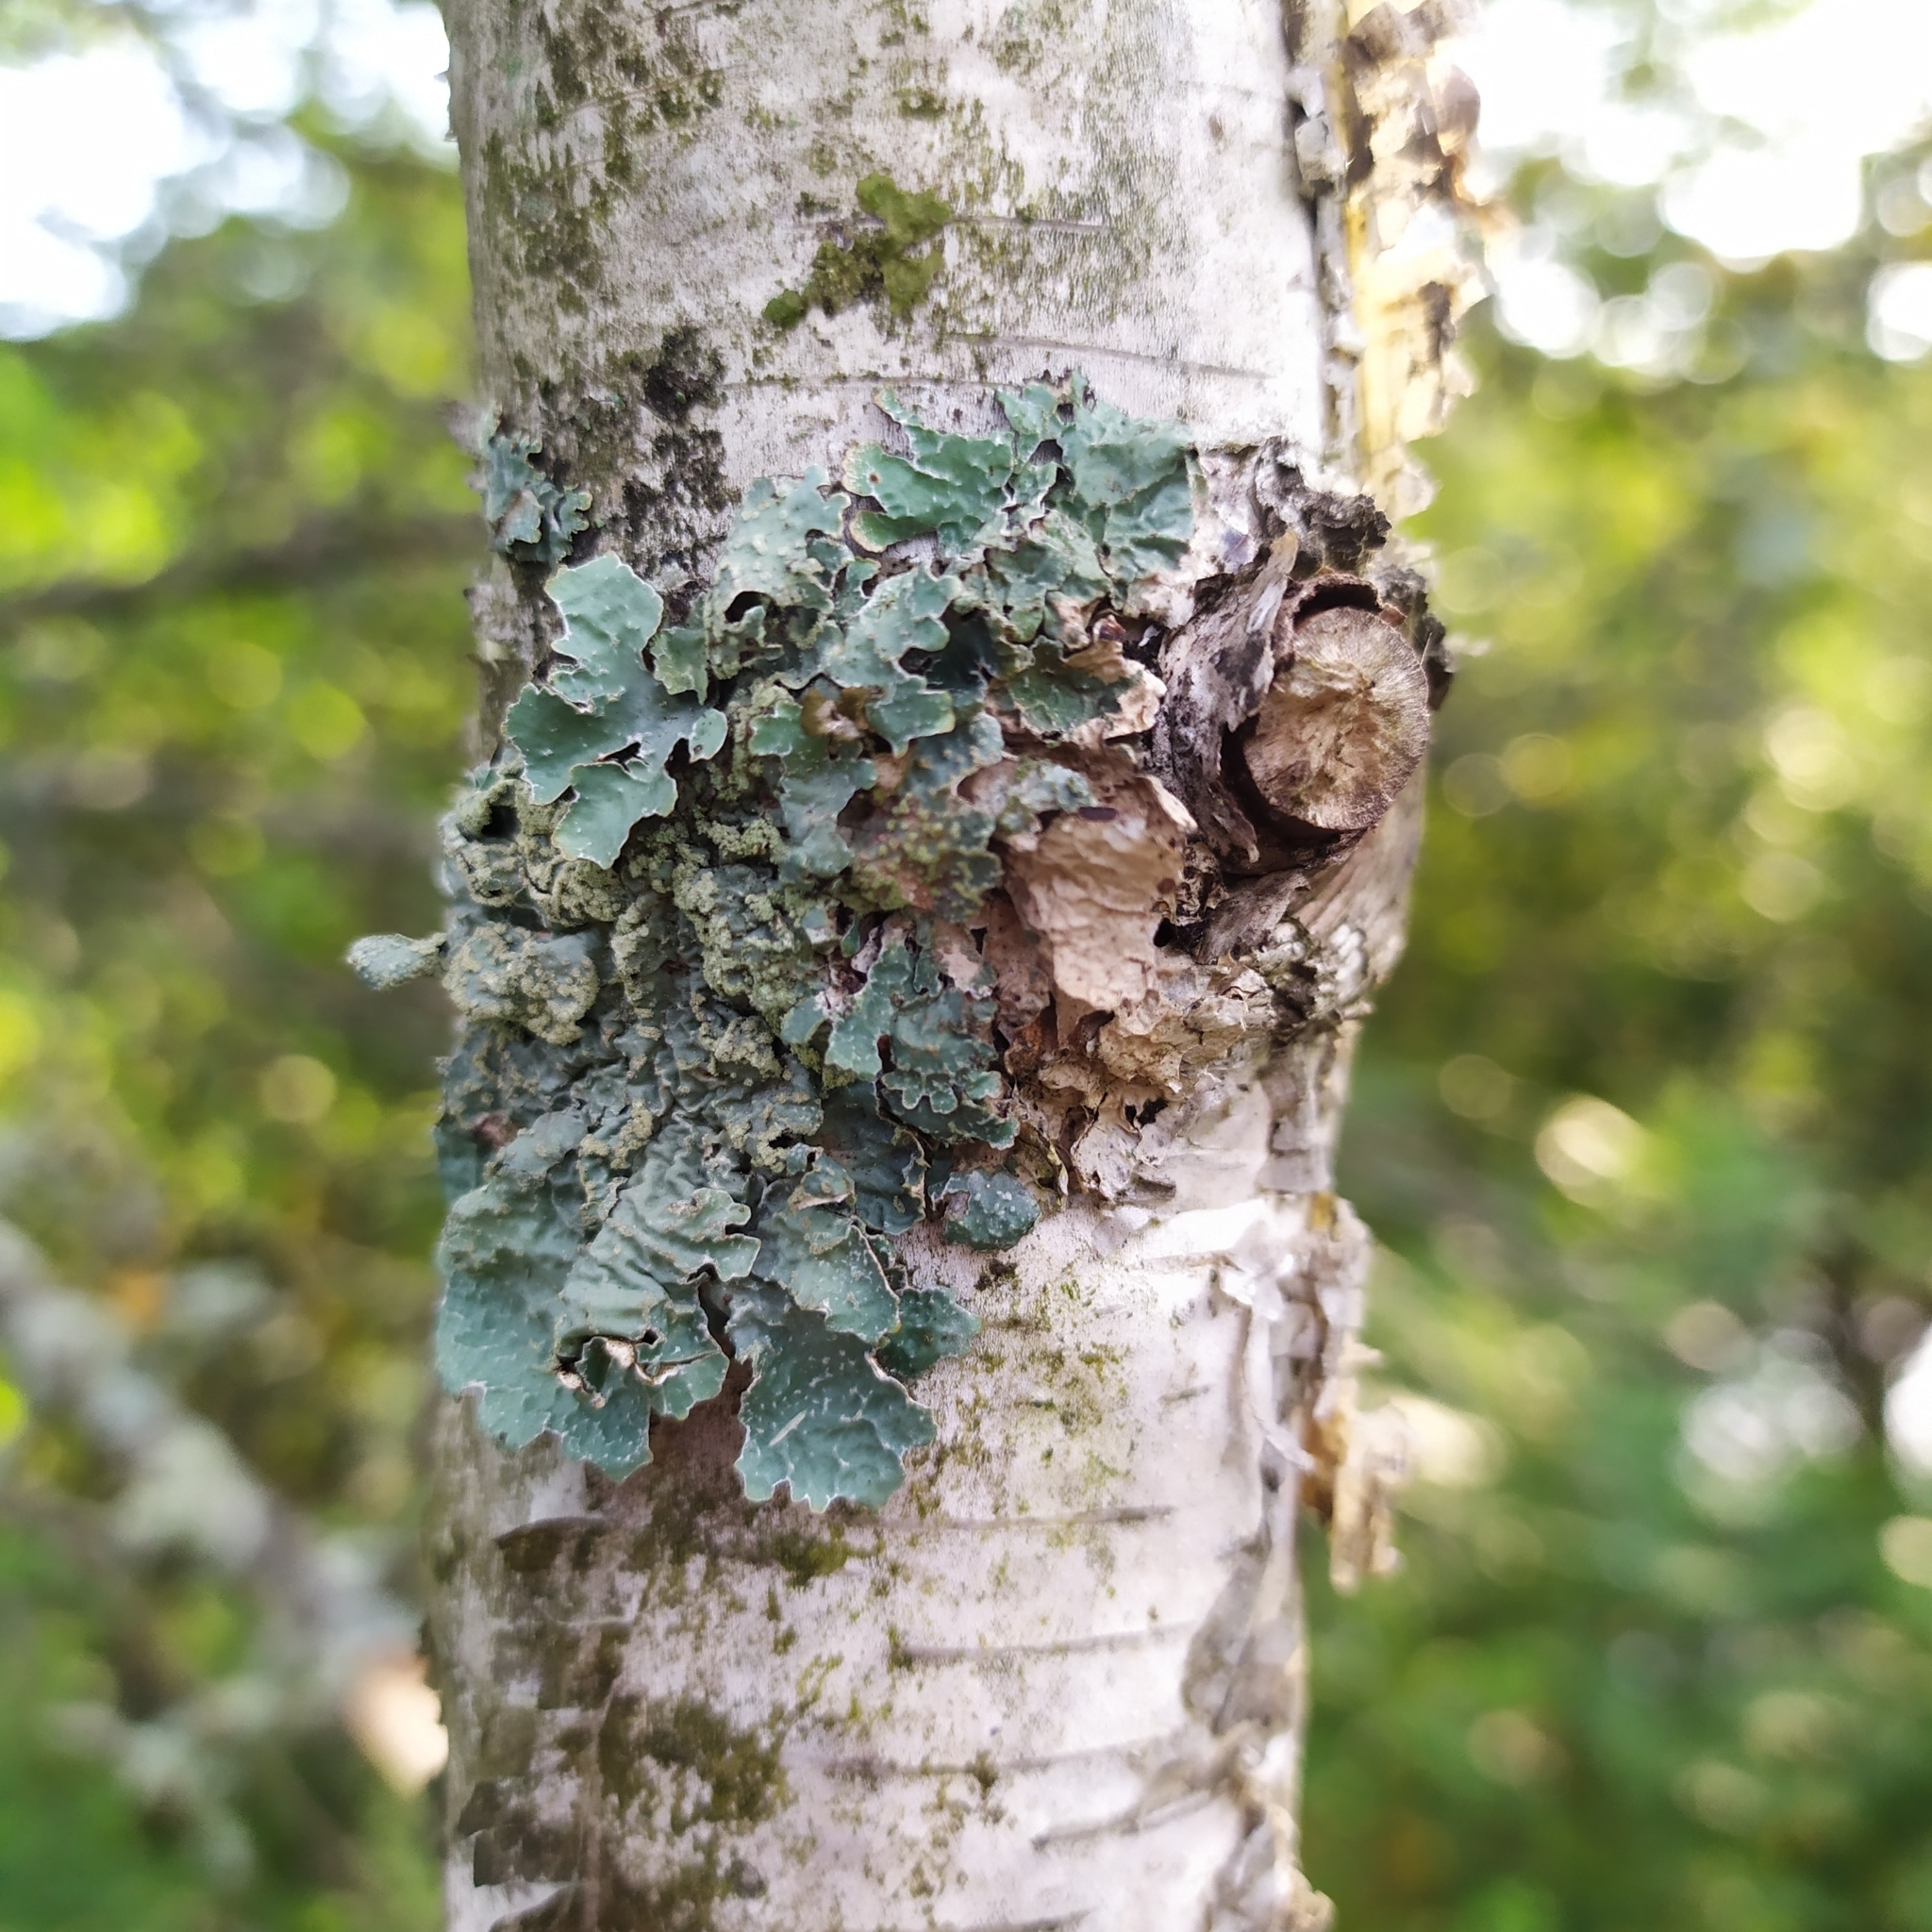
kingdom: Fungi
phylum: Ascomycota
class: Lecanoromycetes
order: Lecanorales
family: Parmeliaceae
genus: Parmelia
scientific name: Parmelia sulcata
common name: Netted shield lichen
